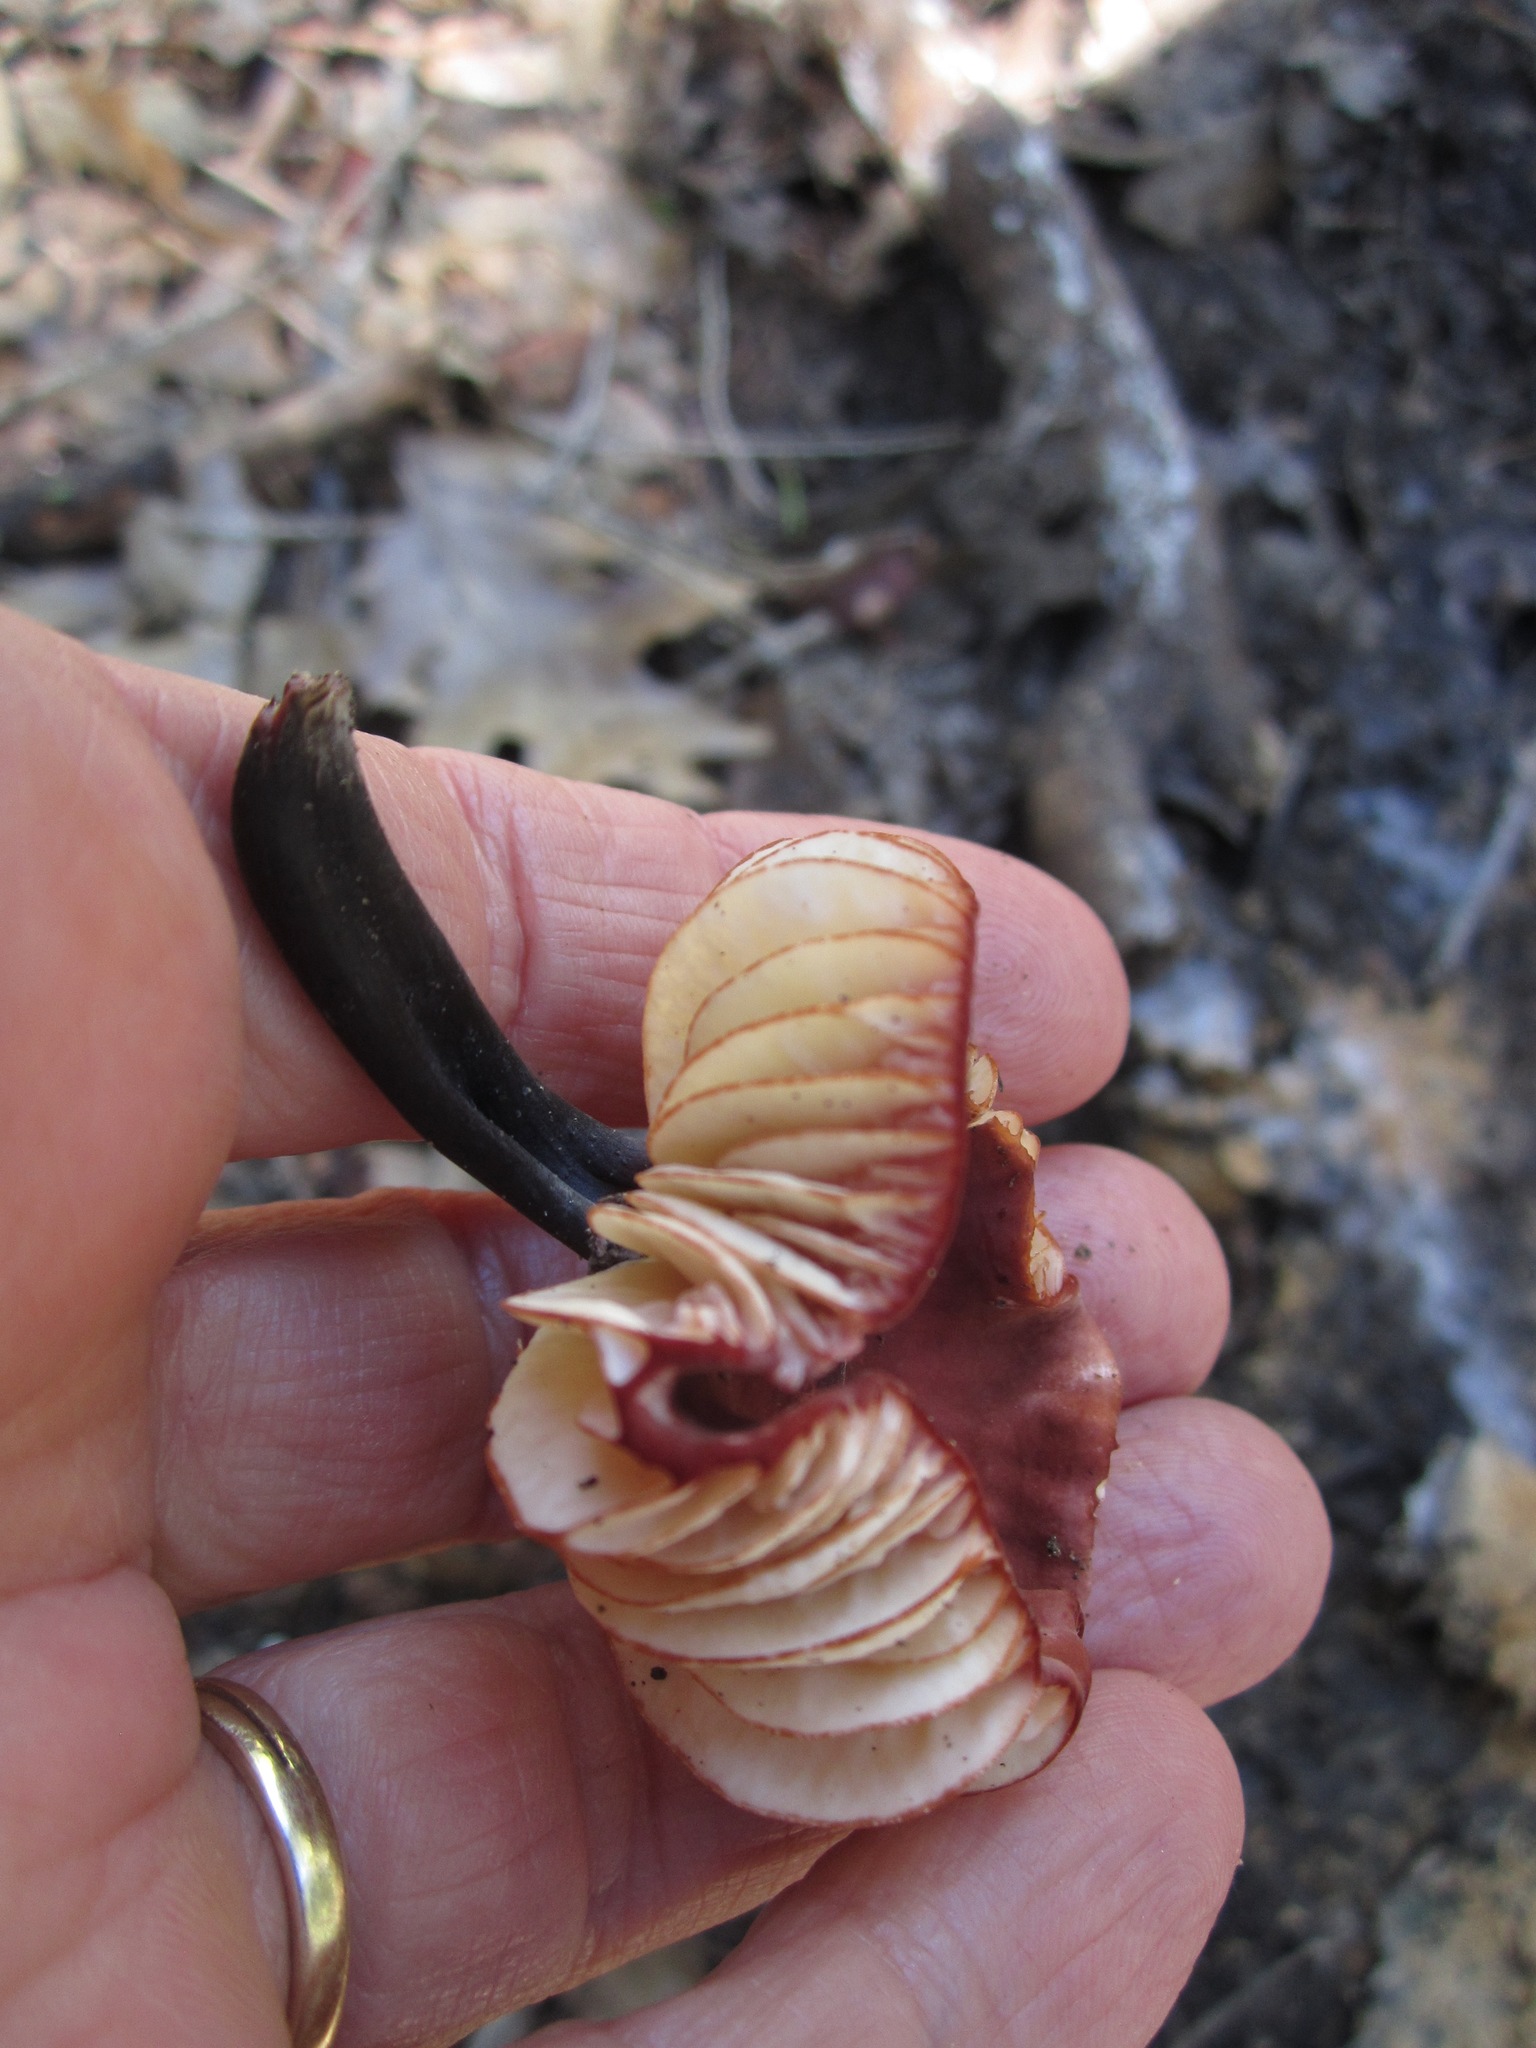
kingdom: Fungi
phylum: Basidiomycota
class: Agaricomycetes
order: Agaricales
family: Marasmiaceae
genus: Marasmius
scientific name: Marasmius plicatulus
